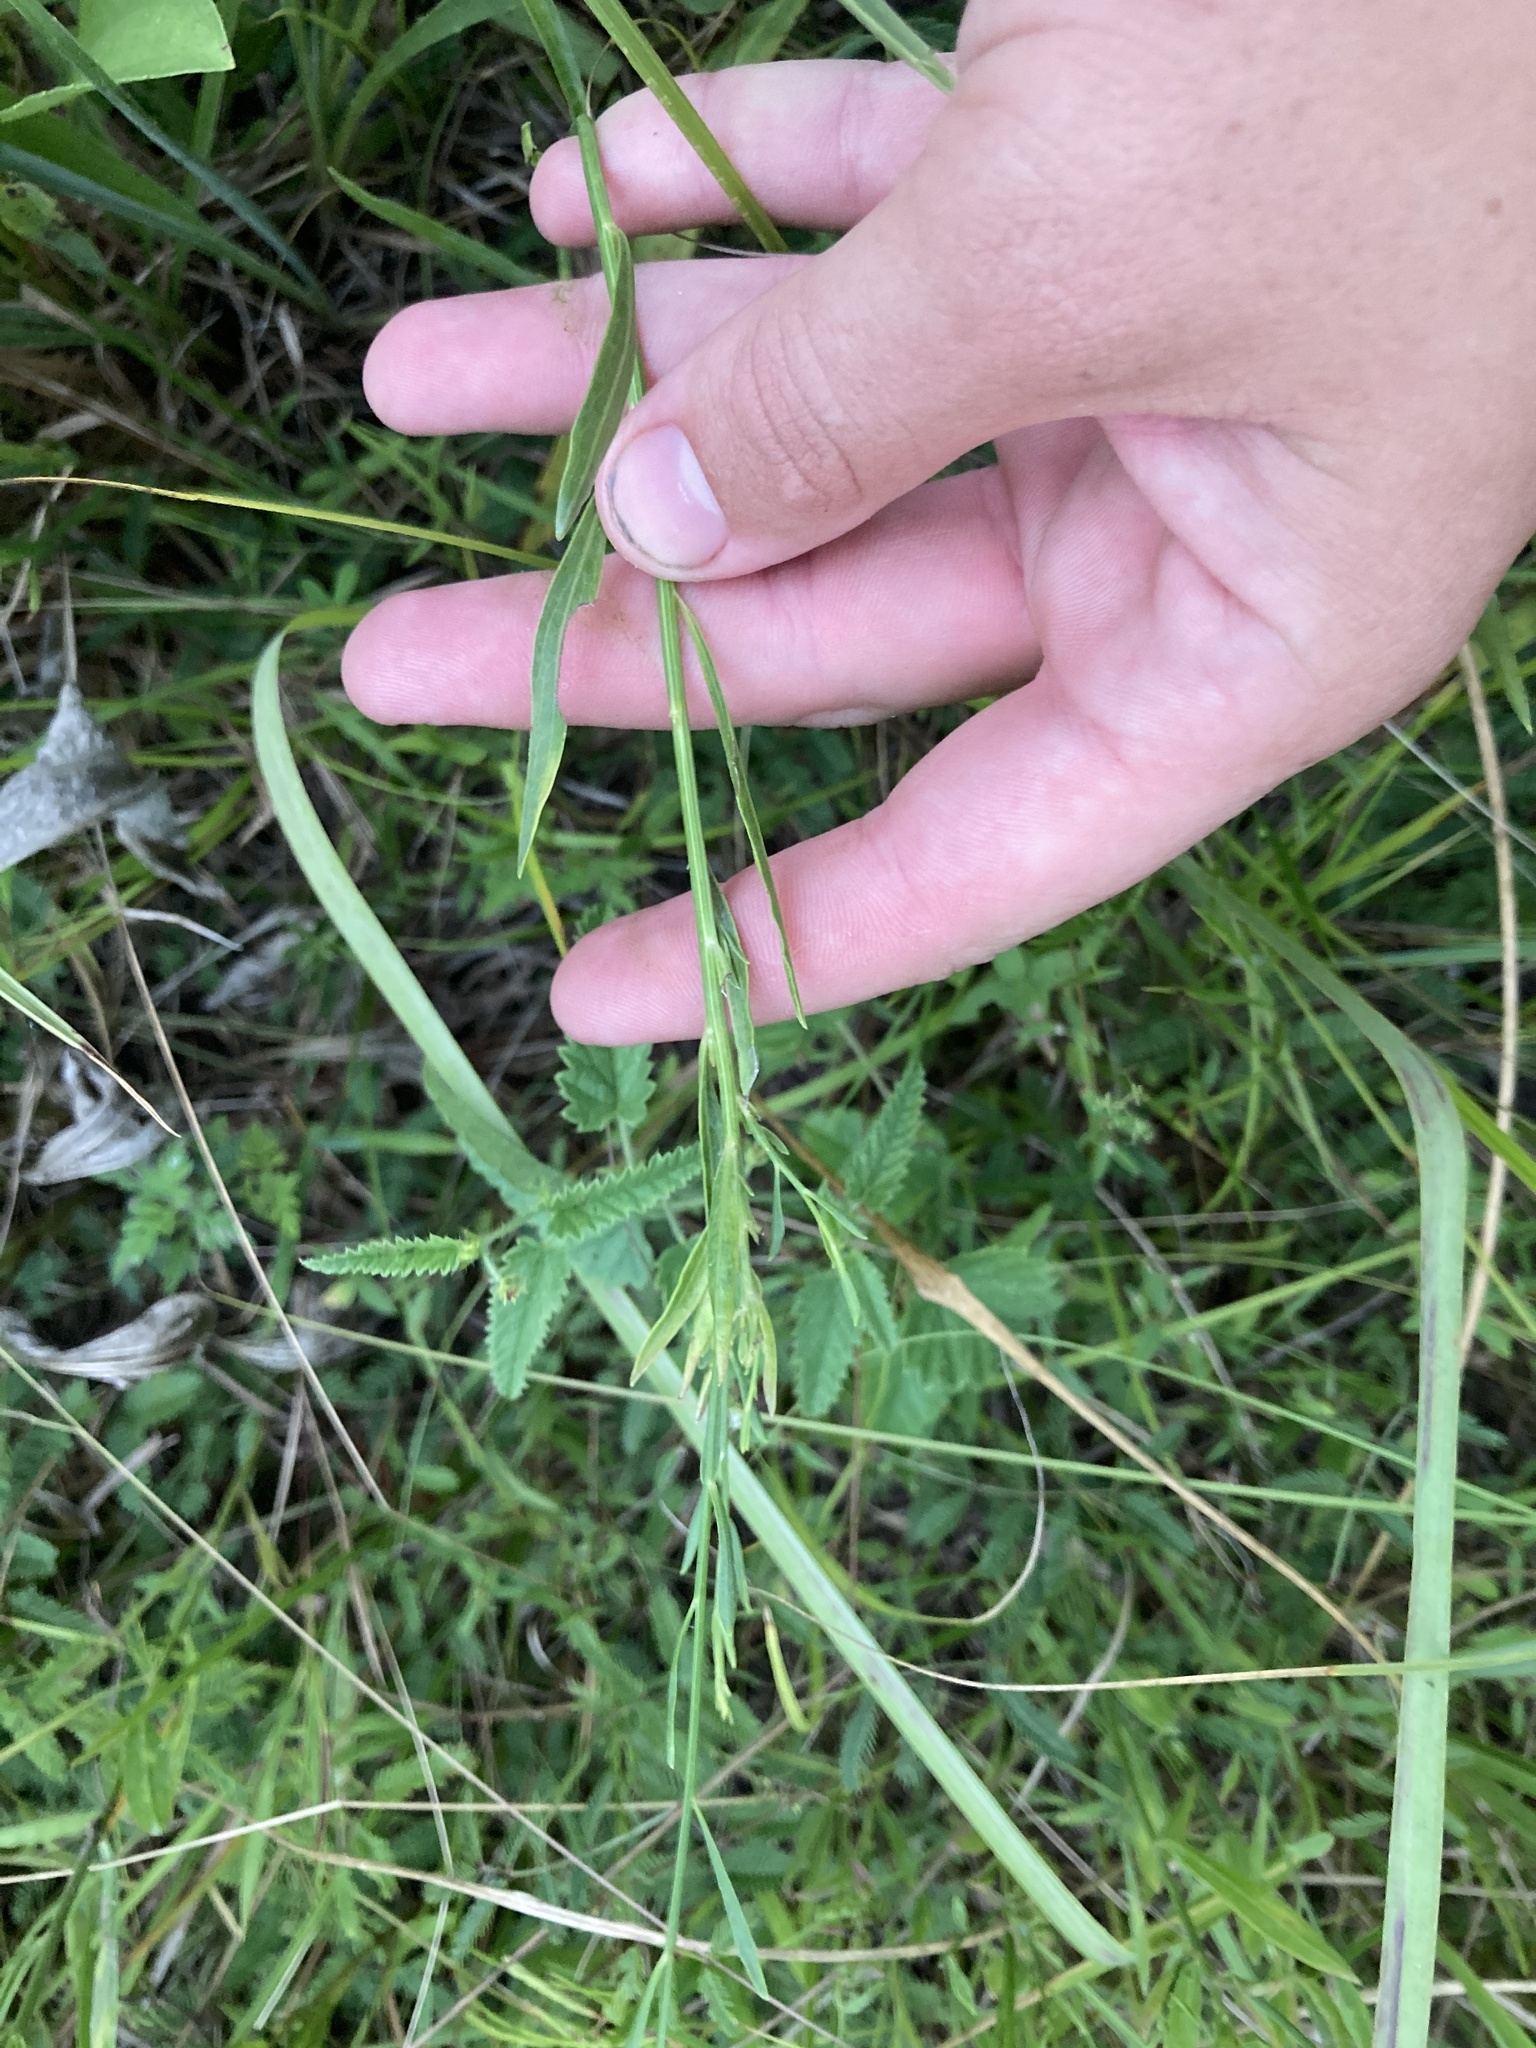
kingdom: Plantae
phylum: Tracheophyta
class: Magnoliopsida
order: Asterales
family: Asteraceae
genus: Boltonia
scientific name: Boltonia diffusa
